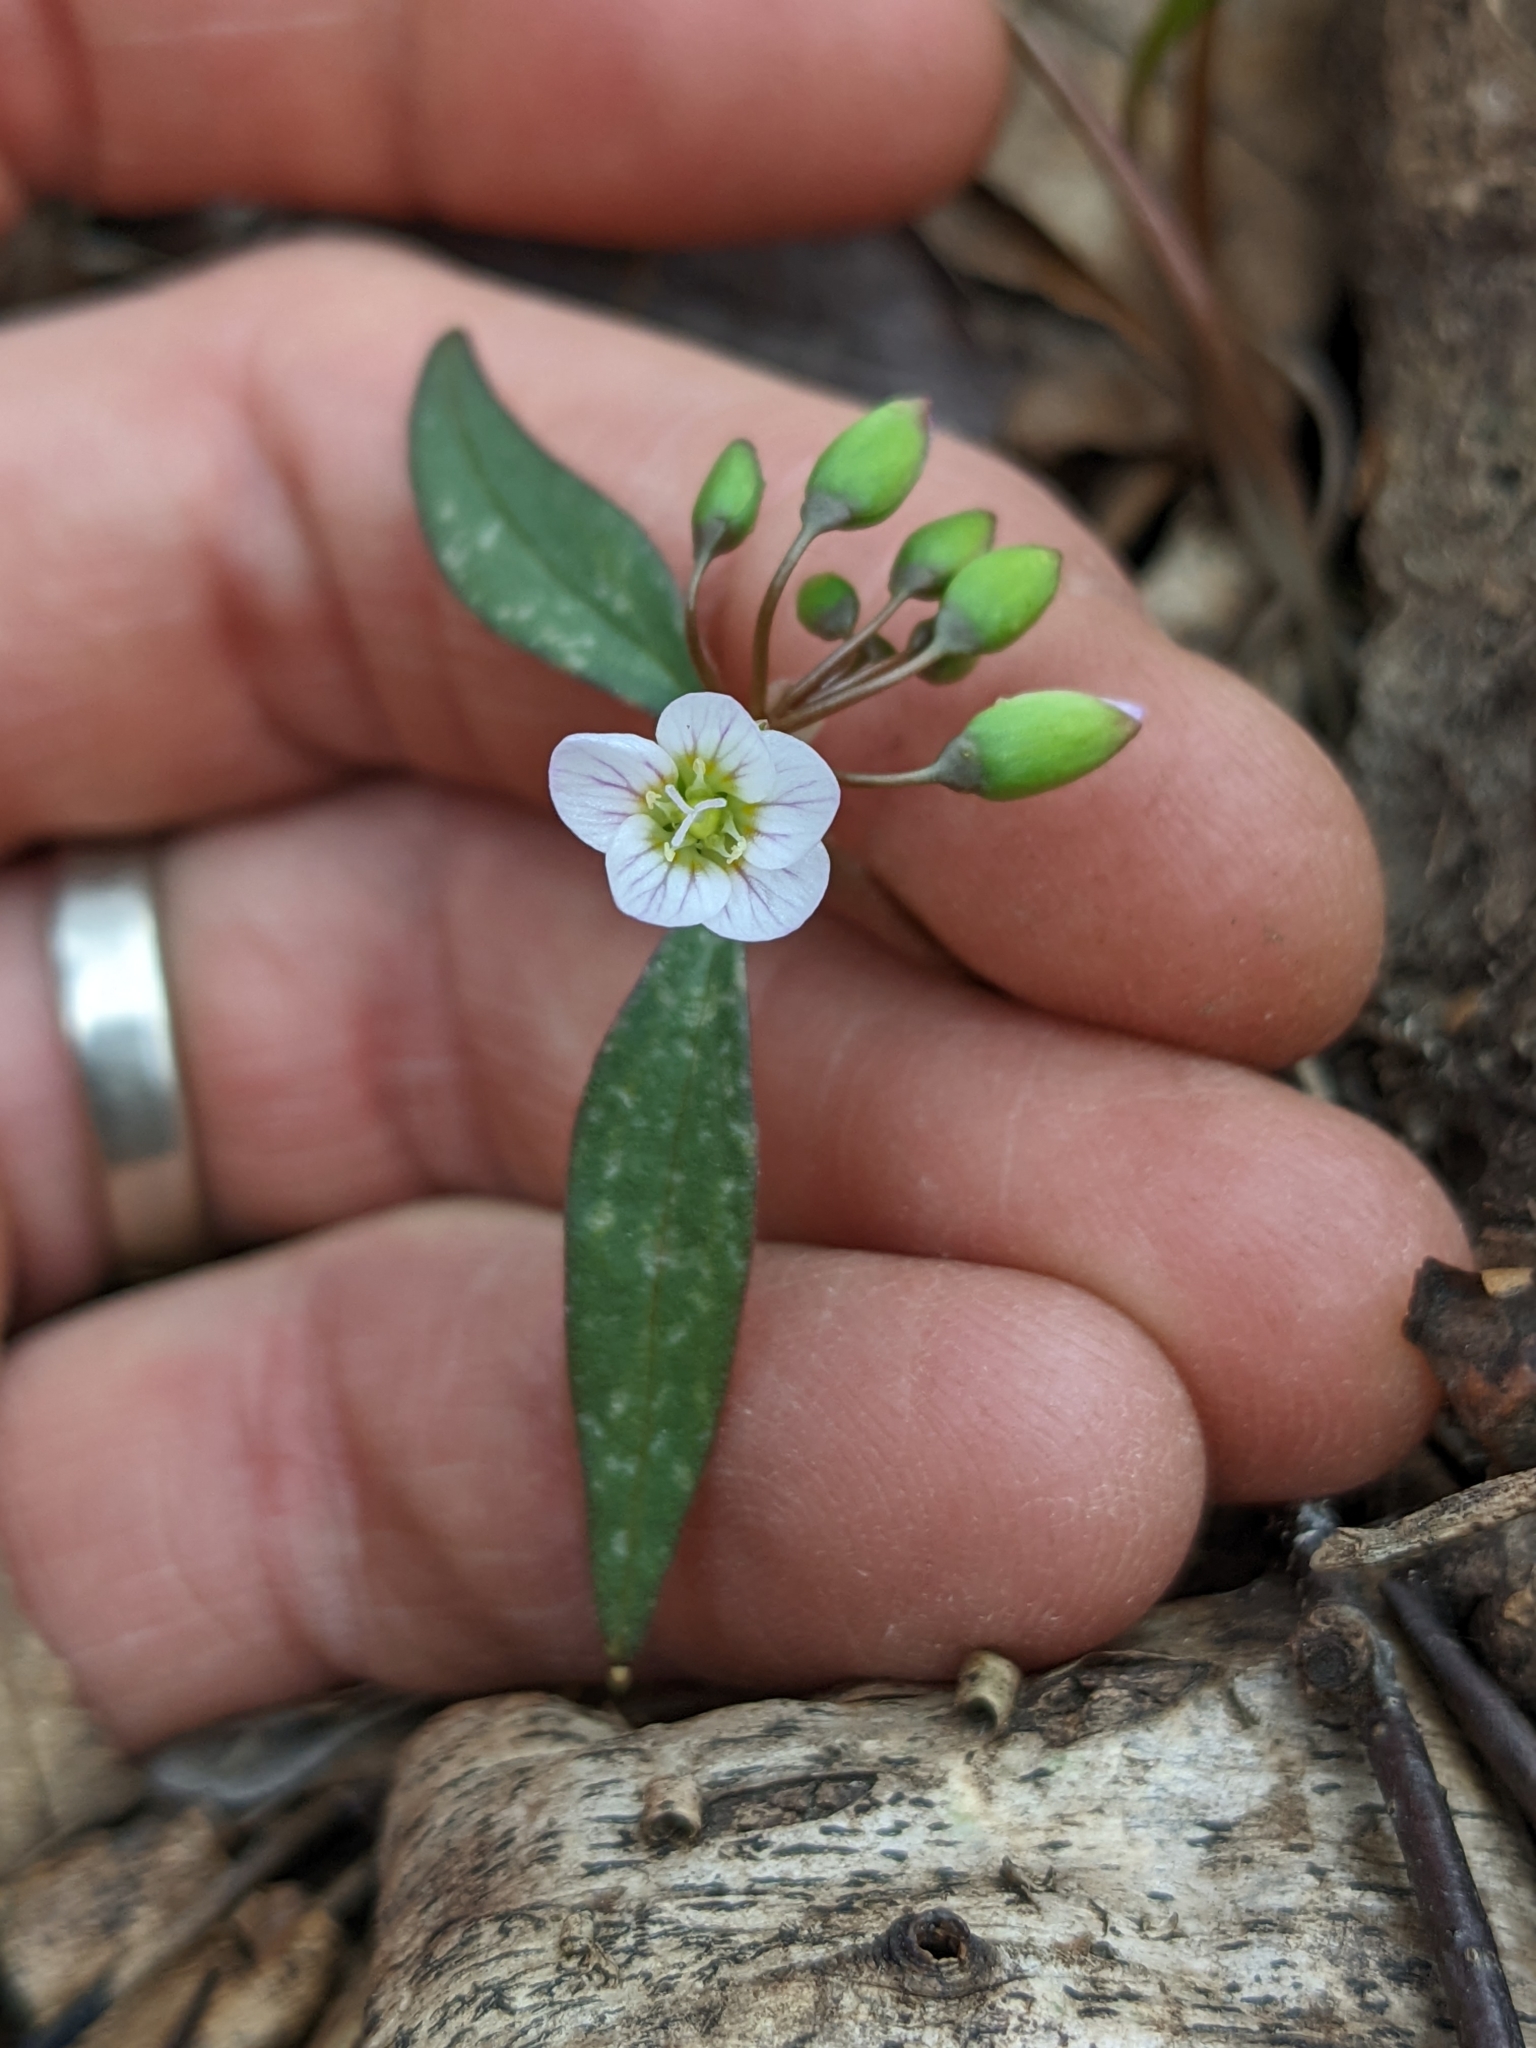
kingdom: Plantae
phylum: Tracheophyta
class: Magnoliopsida
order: Caryophyllales
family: Montiaceae
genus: Claytonia
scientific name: Claytonia caroliniana
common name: Carolina spring beauty
